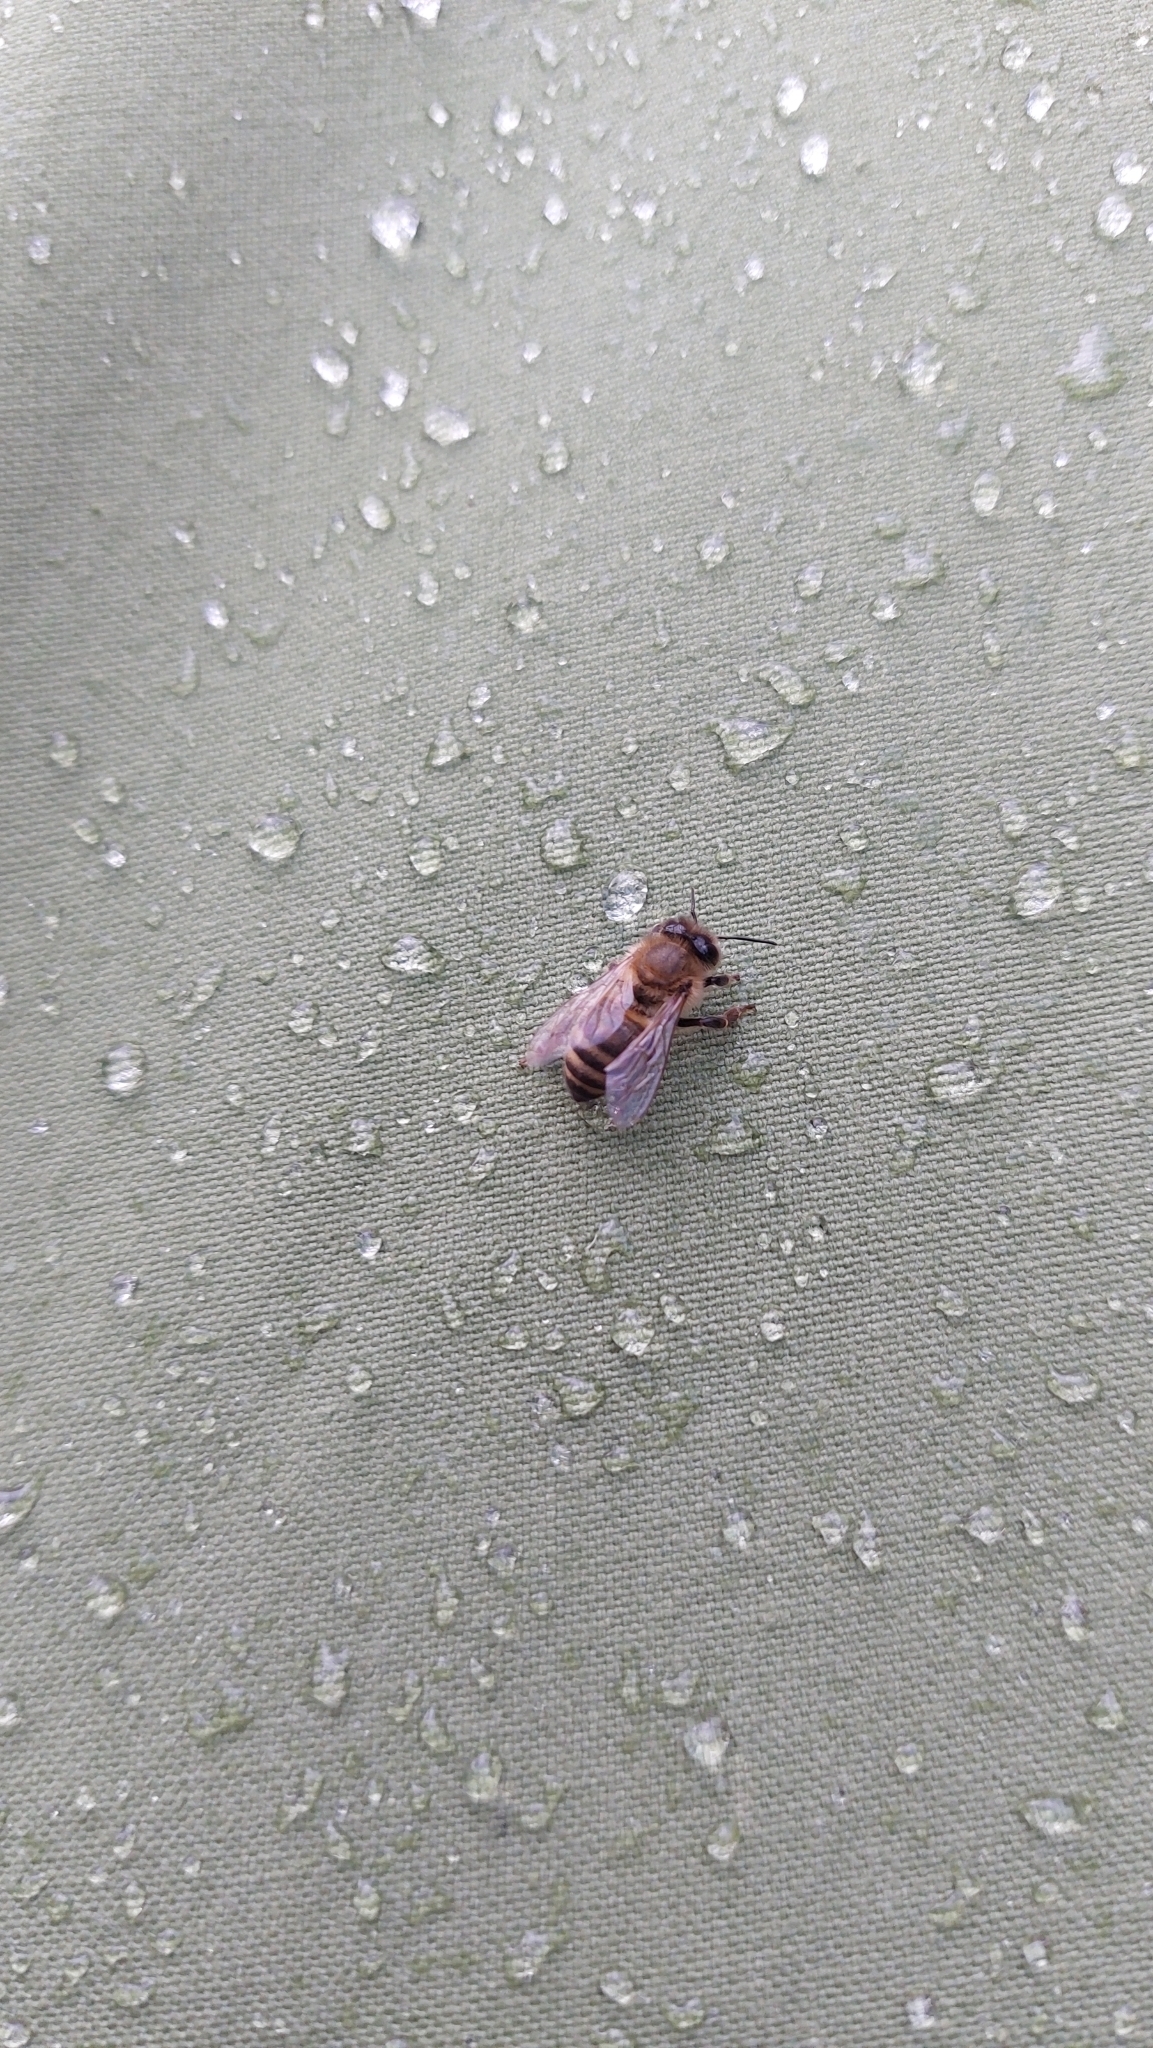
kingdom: Animalia
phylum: Arthropoda
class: Insecta
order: Hymenoptera
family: Apidae
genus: Apis
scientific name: Apis mellifera
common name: Honey bee
